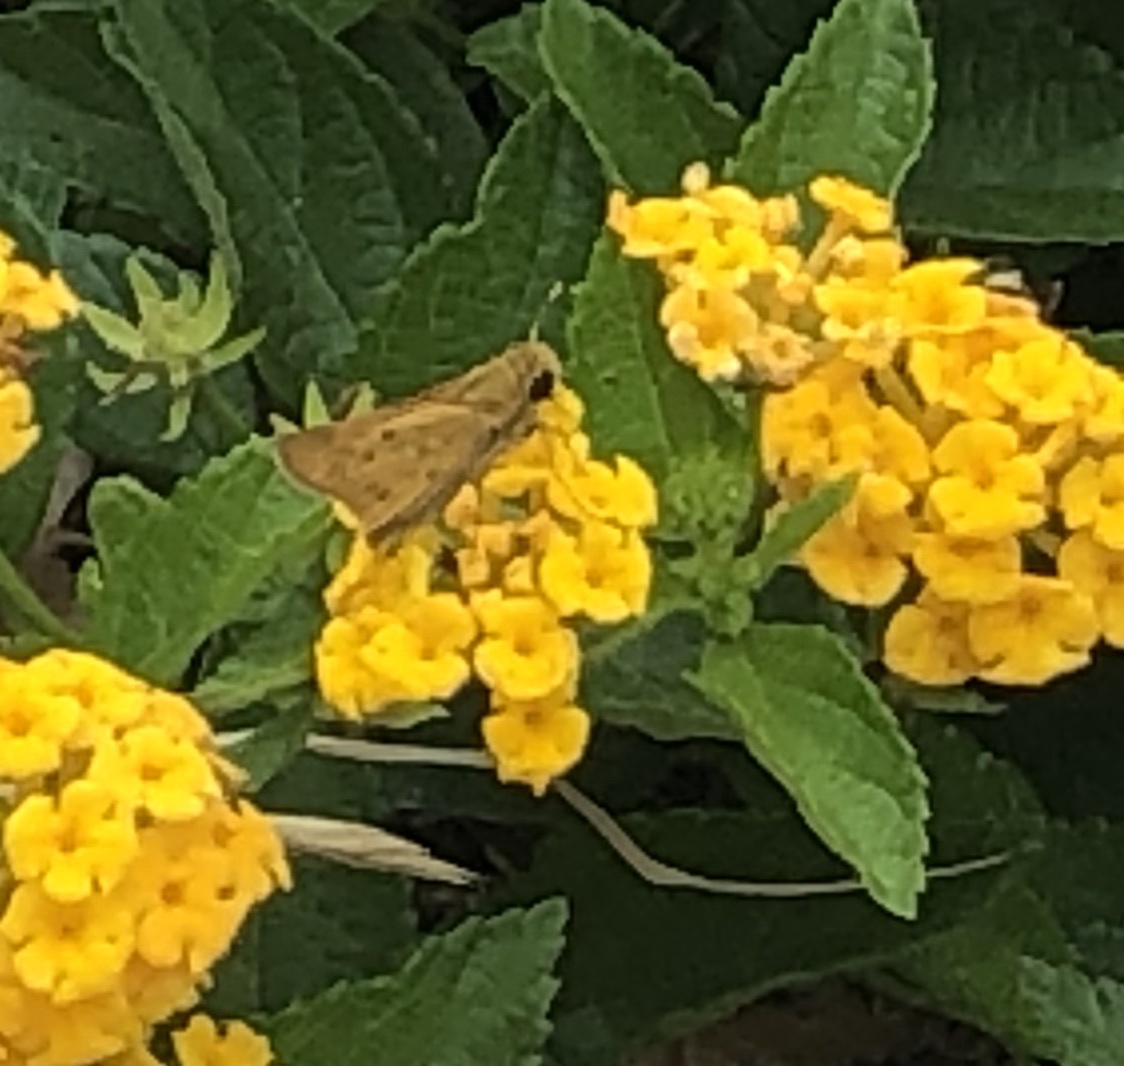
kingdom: Animalia
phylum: Arthropoda
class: Insecta
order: Lepidoptera
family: Hesperiidae
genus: Hylephila
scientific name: Hylephila phyleus
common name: Fiery skipper
